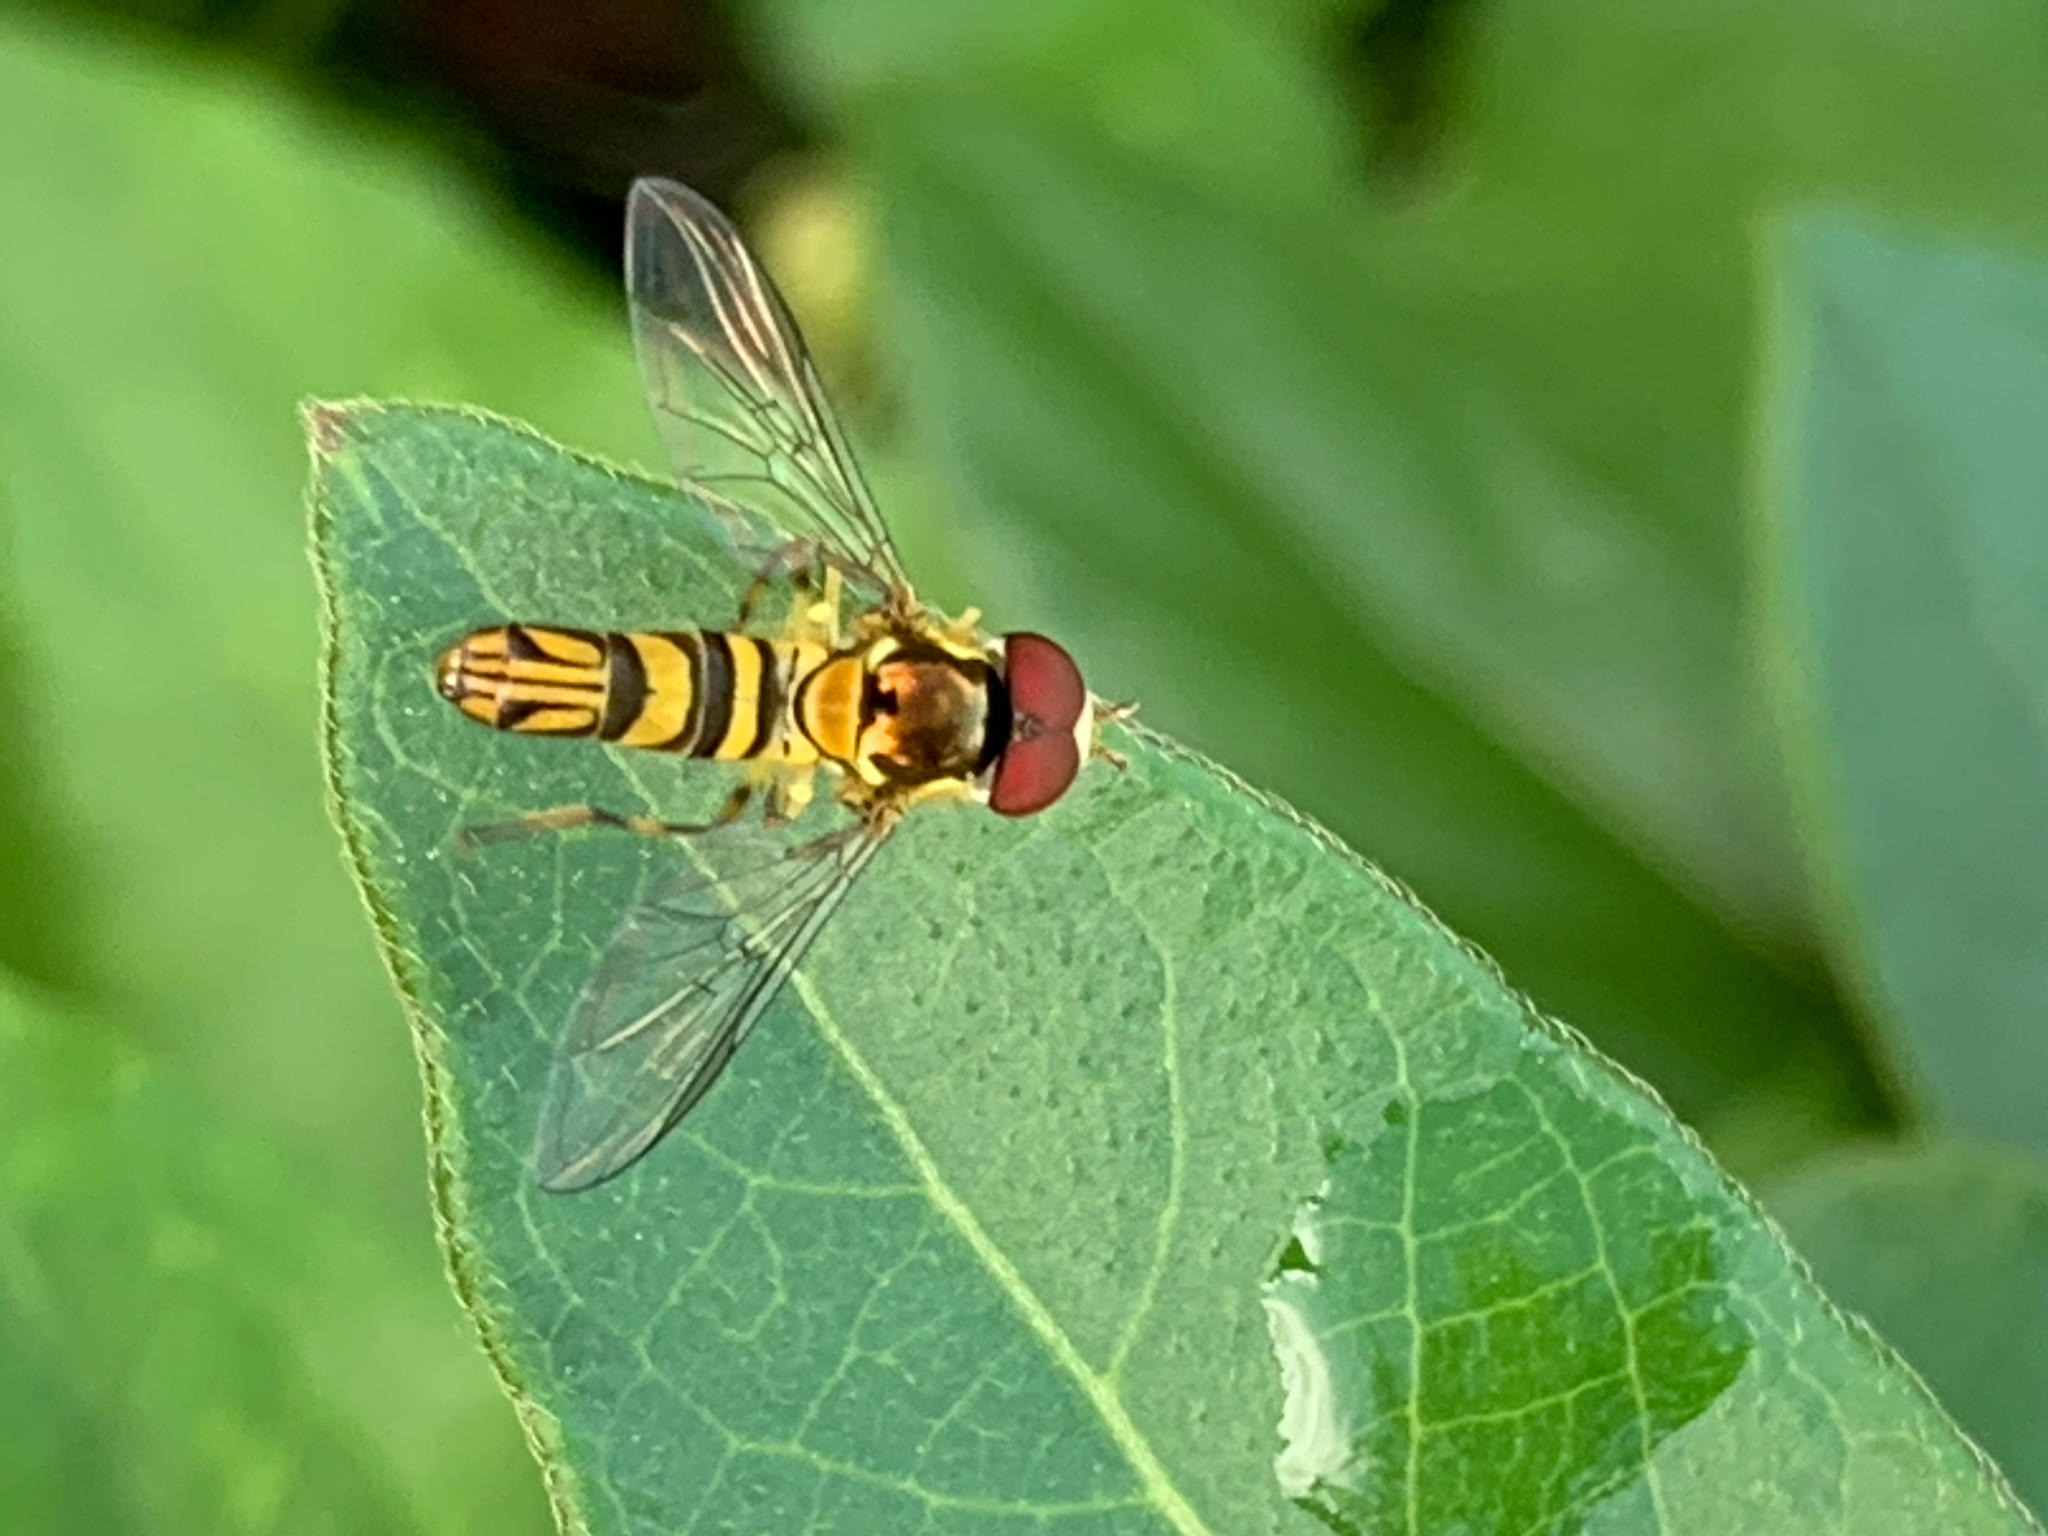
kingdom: Animalia
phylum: Arthropoda
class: Insecta
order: Diptera
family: Syrphidae
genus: Allograpta
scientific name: Allograpta obliqua
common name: Common oblique syrphid
